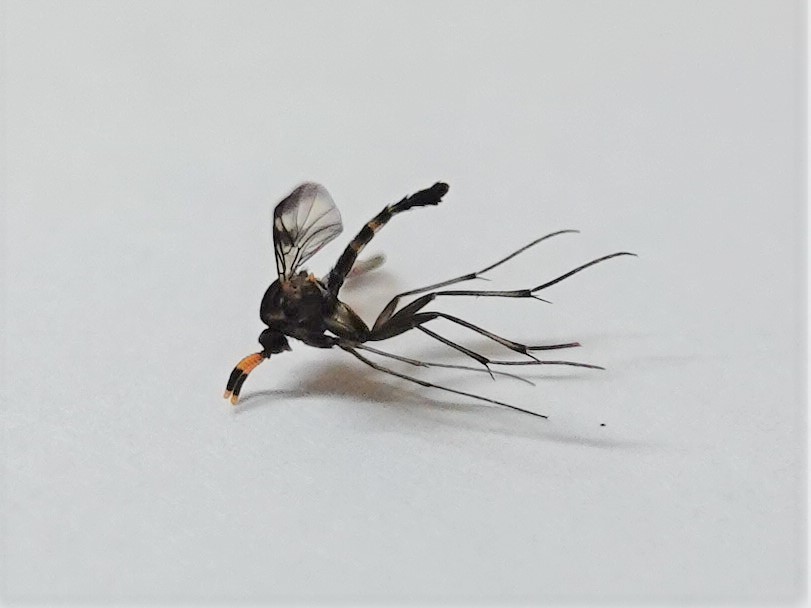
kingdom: Animalia
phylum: Arthropoda
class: Insecta
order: Diptera
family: Keroplatidae
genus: Cerotelion
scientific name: Cerotelion leucoceras
